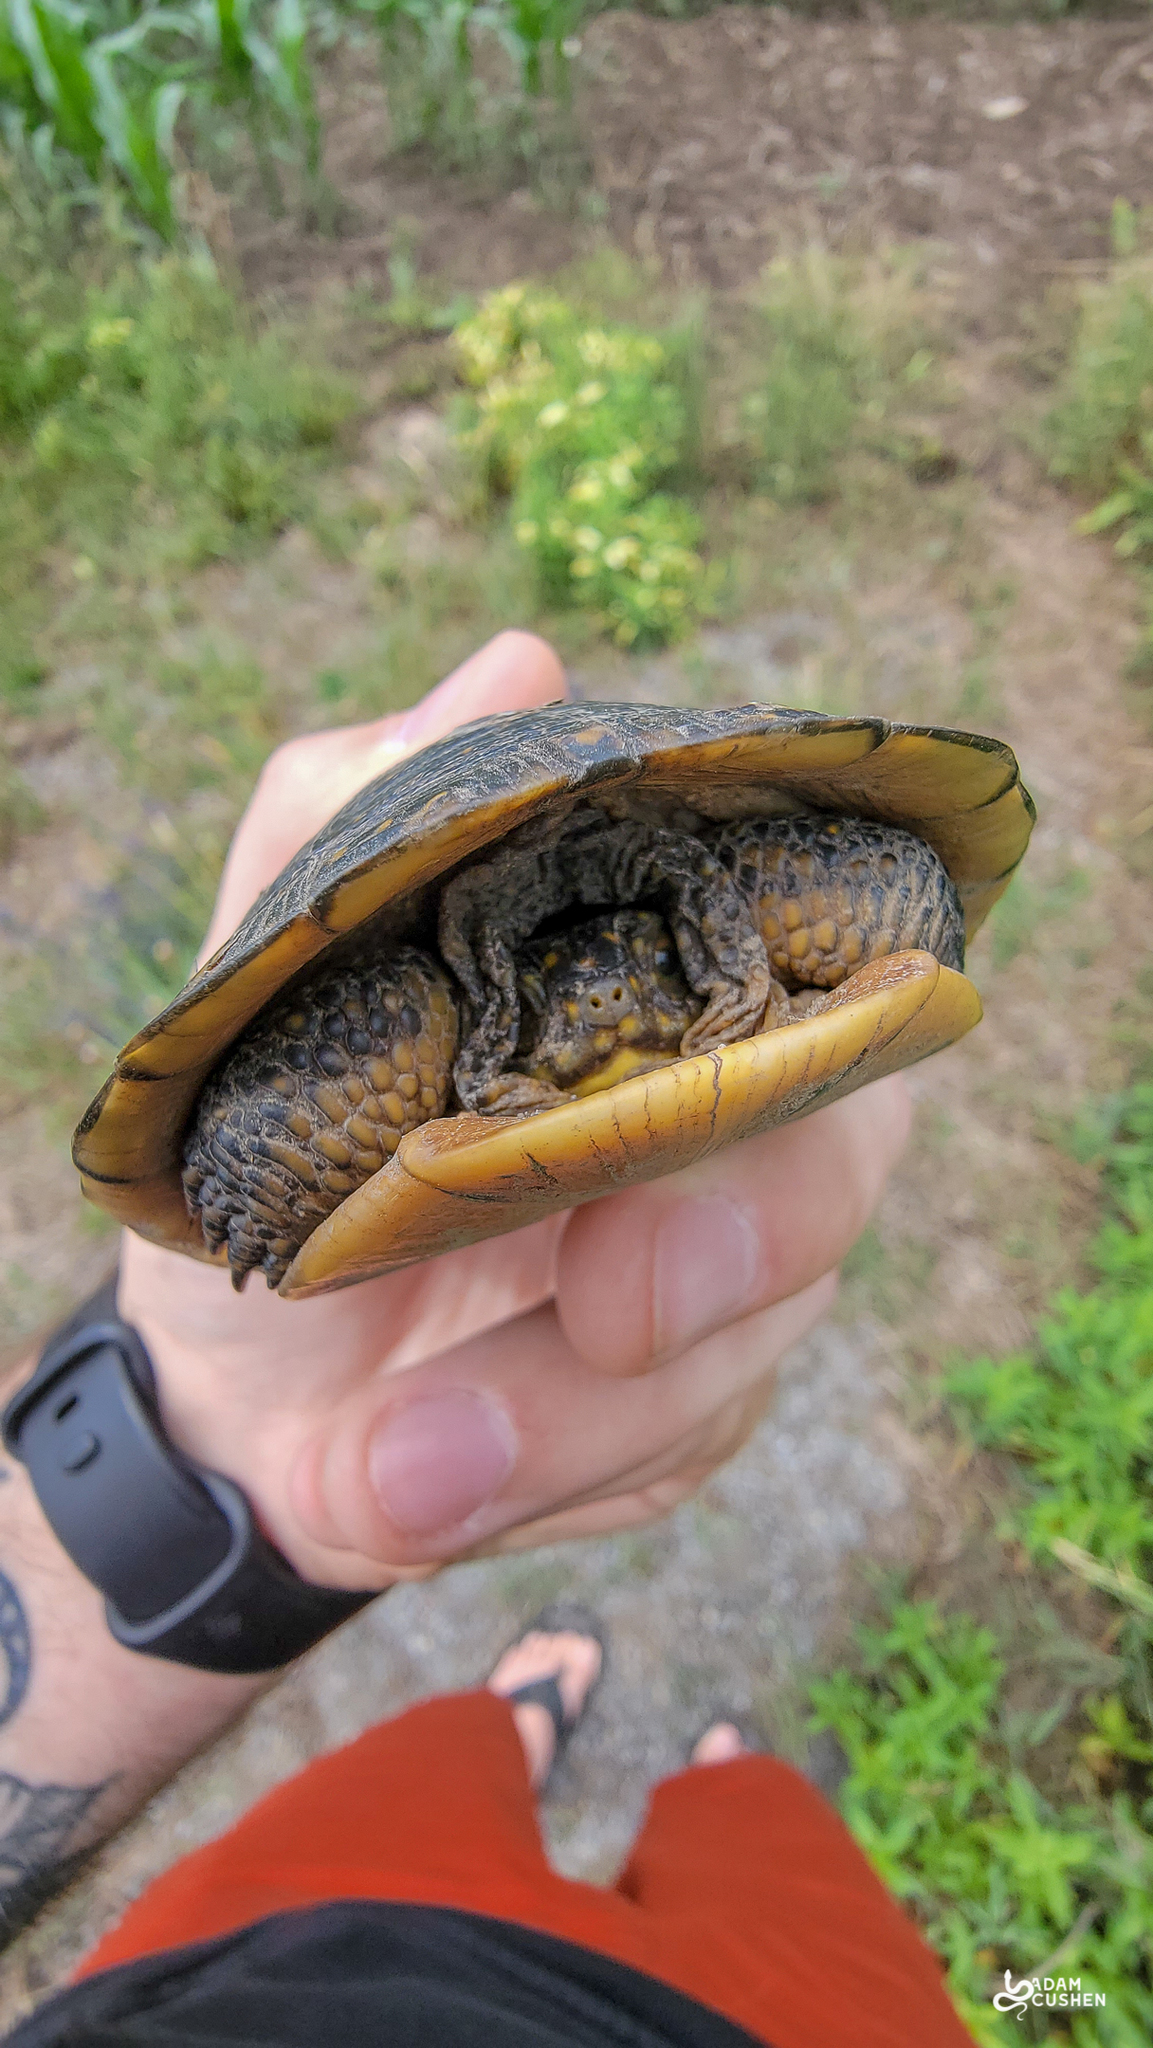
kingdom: Animalia
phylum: Chordata
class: Testudines
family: Emydidae
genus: Emys
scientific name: Emys blandingii
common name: Blanding's turtle
